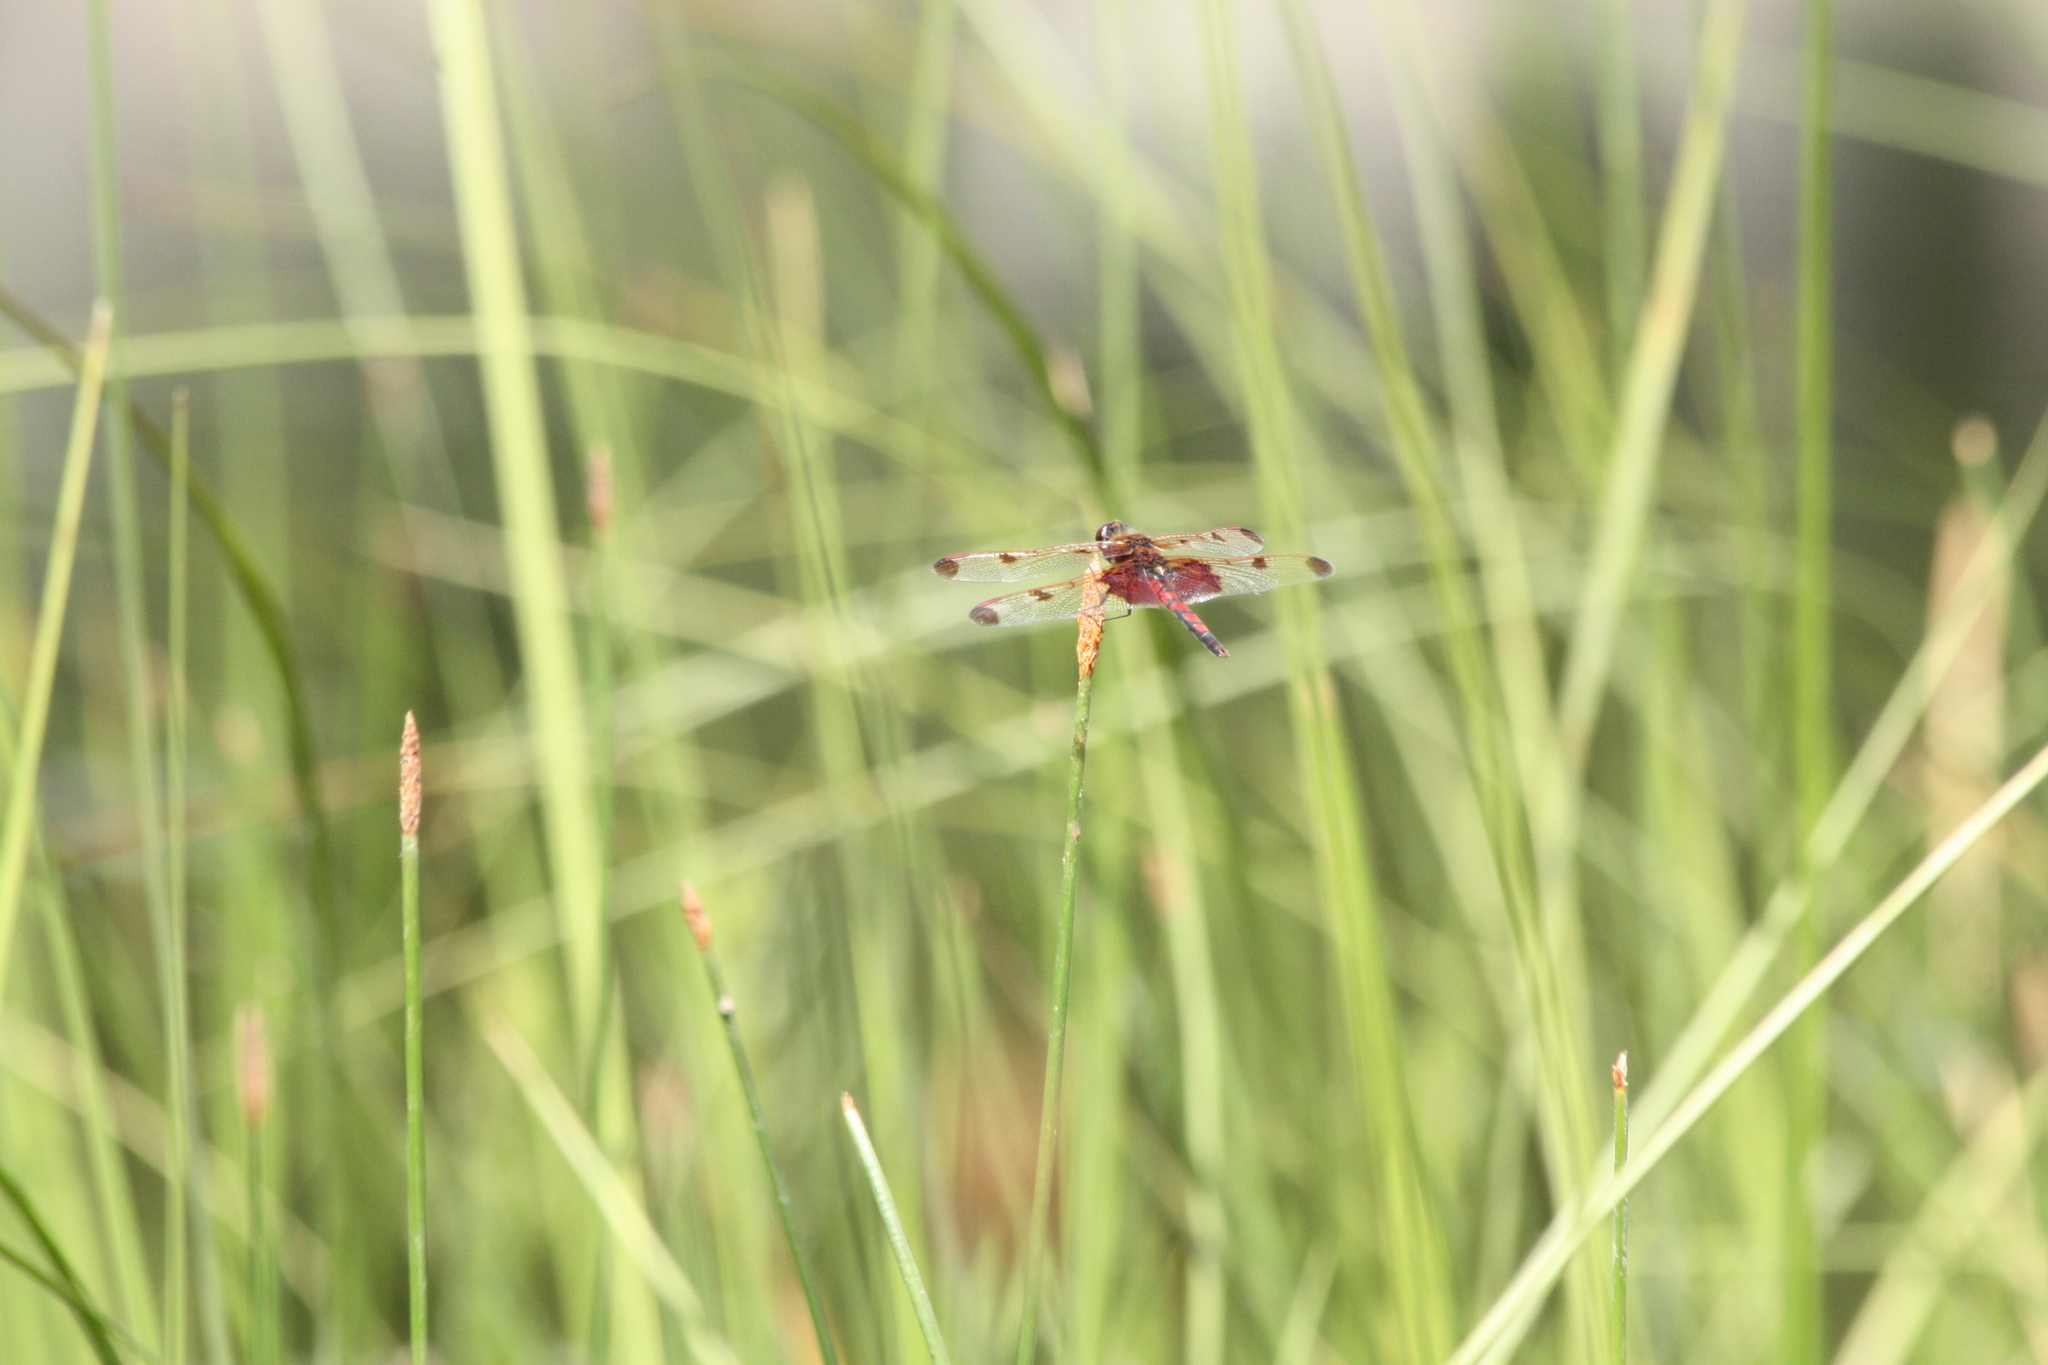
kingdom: Animalia
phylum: Arthropoda
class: Insecta
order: Odonata
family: Libellulidae
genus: Celithemis
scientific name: Celithemis elisa
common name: Calico pennant
